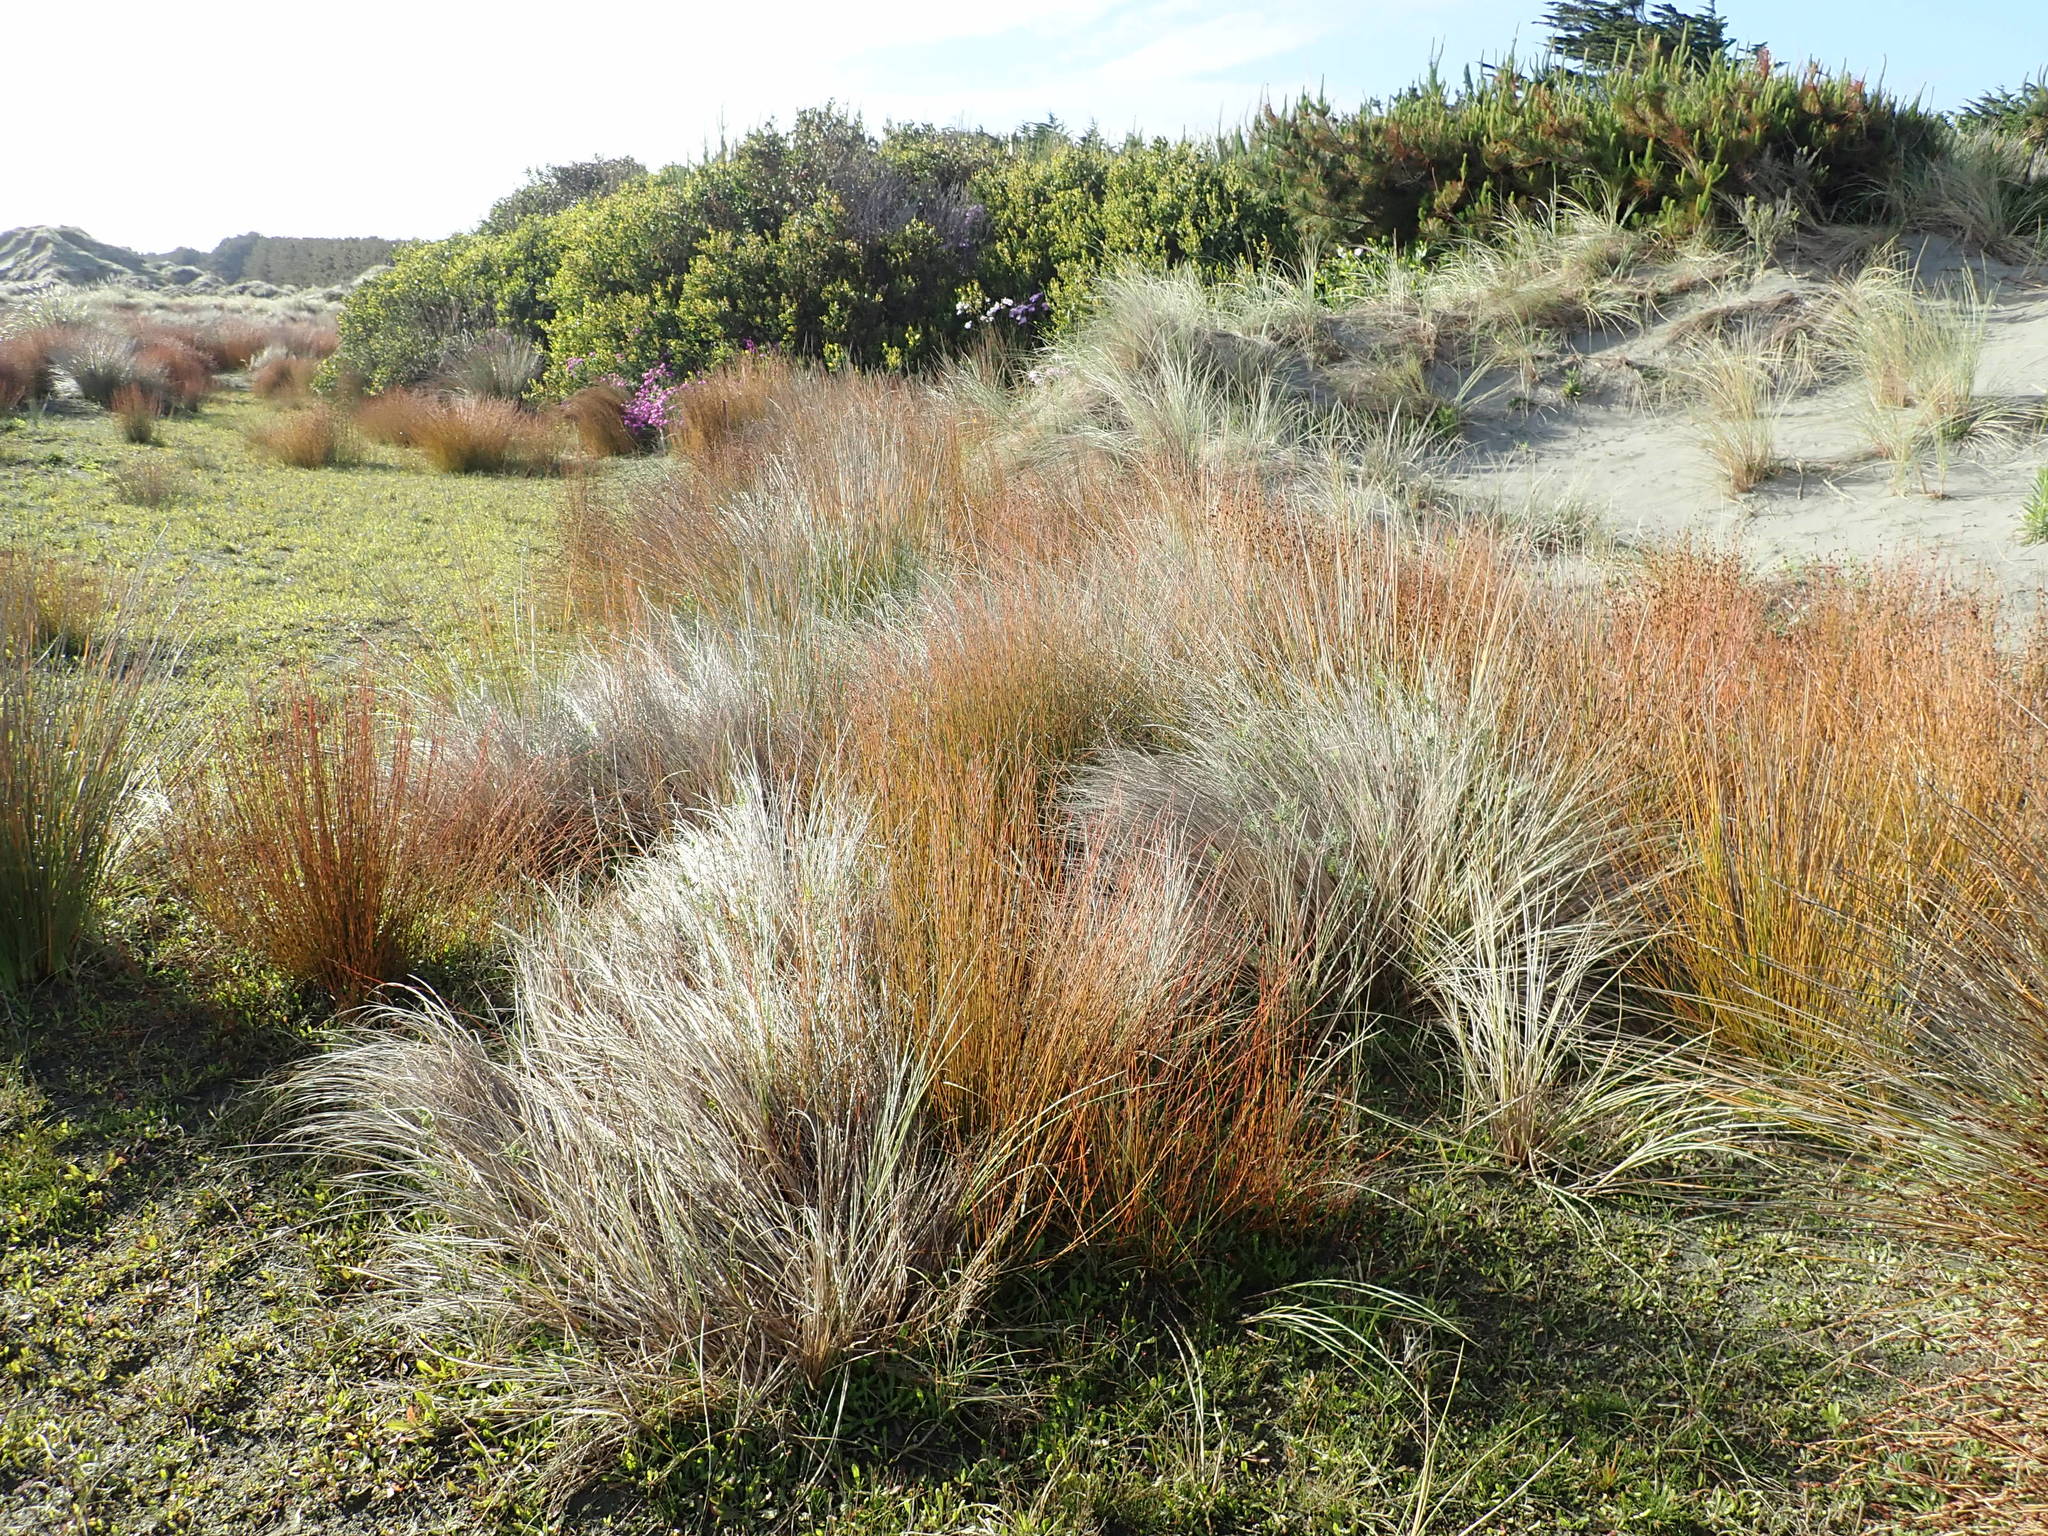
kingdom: Plantae
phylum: Tracheophyta
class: Liliopsida
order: Poales
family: Restionaceae
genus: Apodasmia
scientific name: Apodasmia similis
